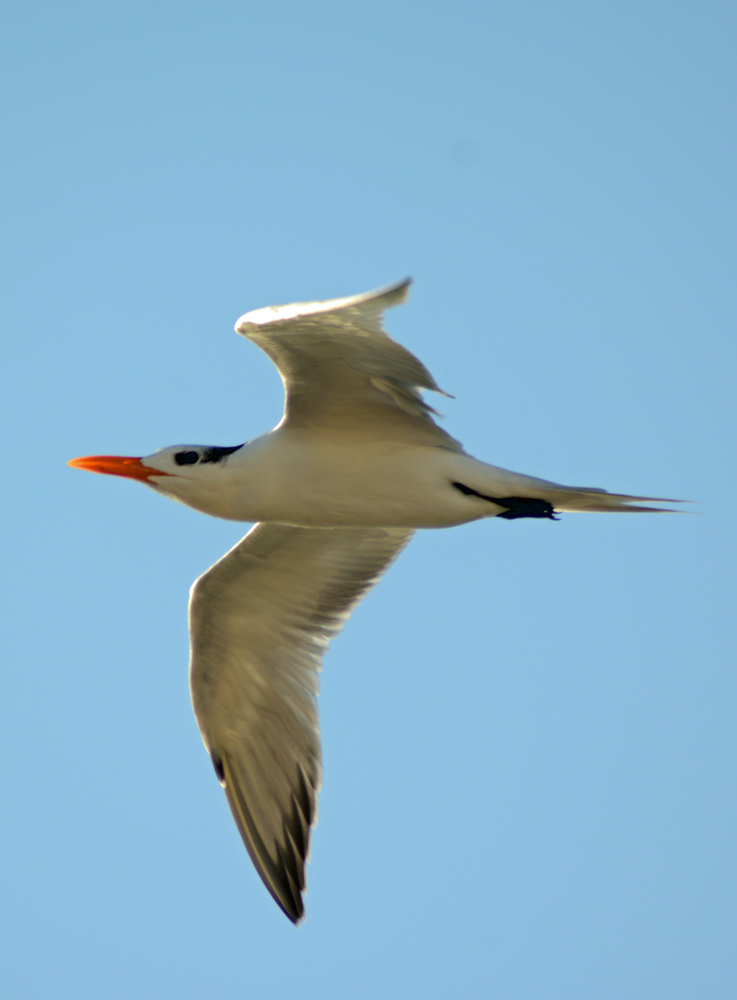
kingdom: Animalia
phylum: Chordata
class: Aves
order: Charadriiformes
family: Laridae
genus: Thalasseus
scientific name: Thalasseus maximus
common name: Royal tern
